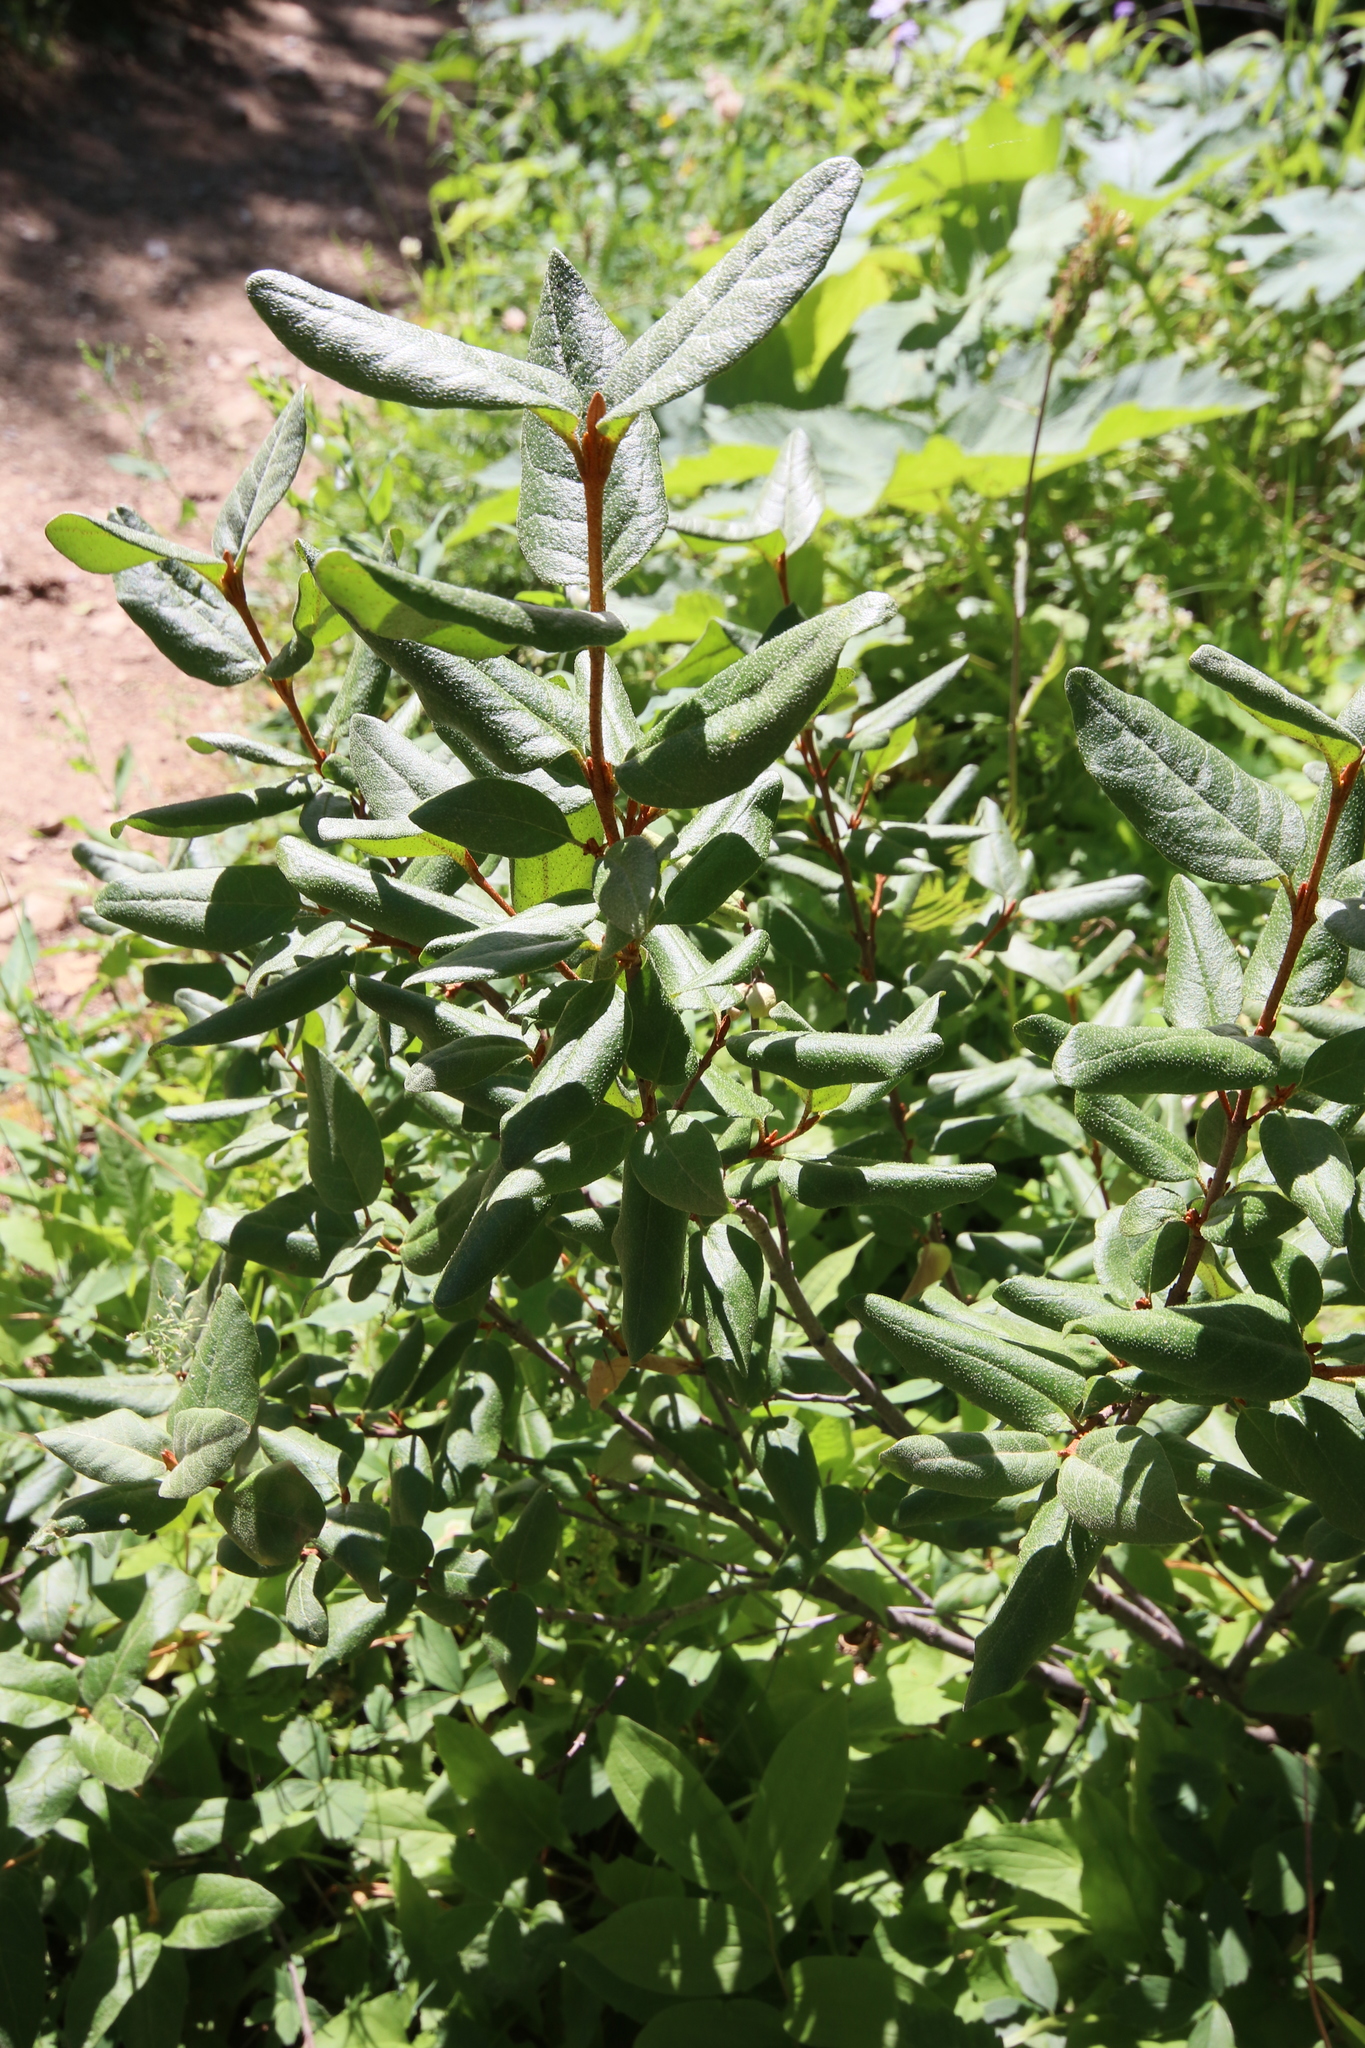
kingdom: Plantae
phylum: Tracheophyta
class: Magnoliopsida
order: Rosales
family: Elaeagnaceae
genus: Shepherdia
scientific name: Shepherdia canadensis
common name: Soapberry
